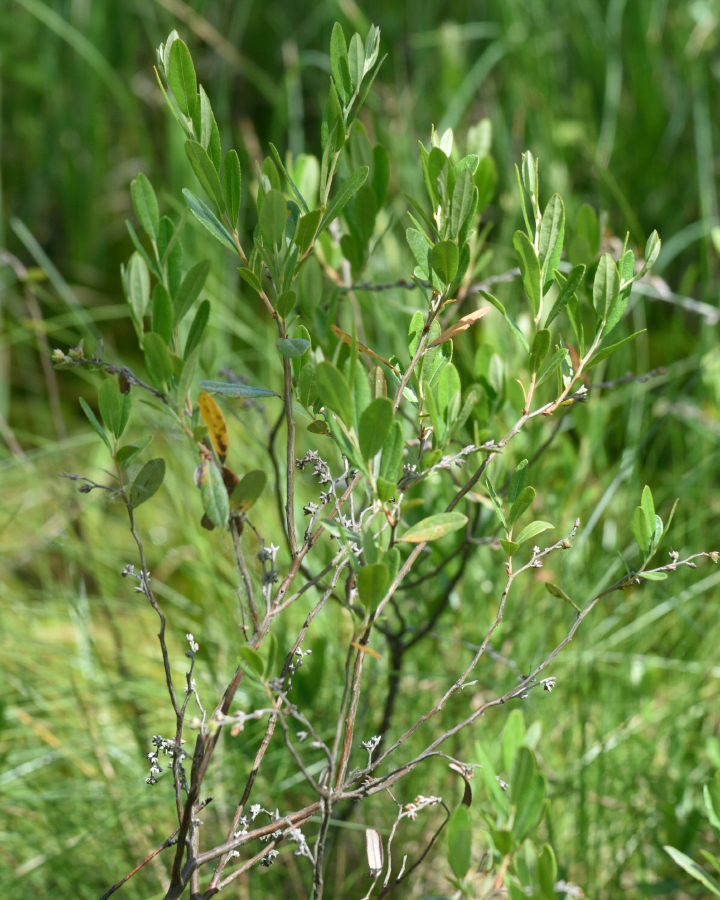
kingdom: Plantae
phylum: Tracheophyta
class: Magnoliopsida
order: Ericales
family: Ericaceae
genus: Chamaedaphne
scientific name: Chamaedaphne calyculata
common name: Leatherleaf
